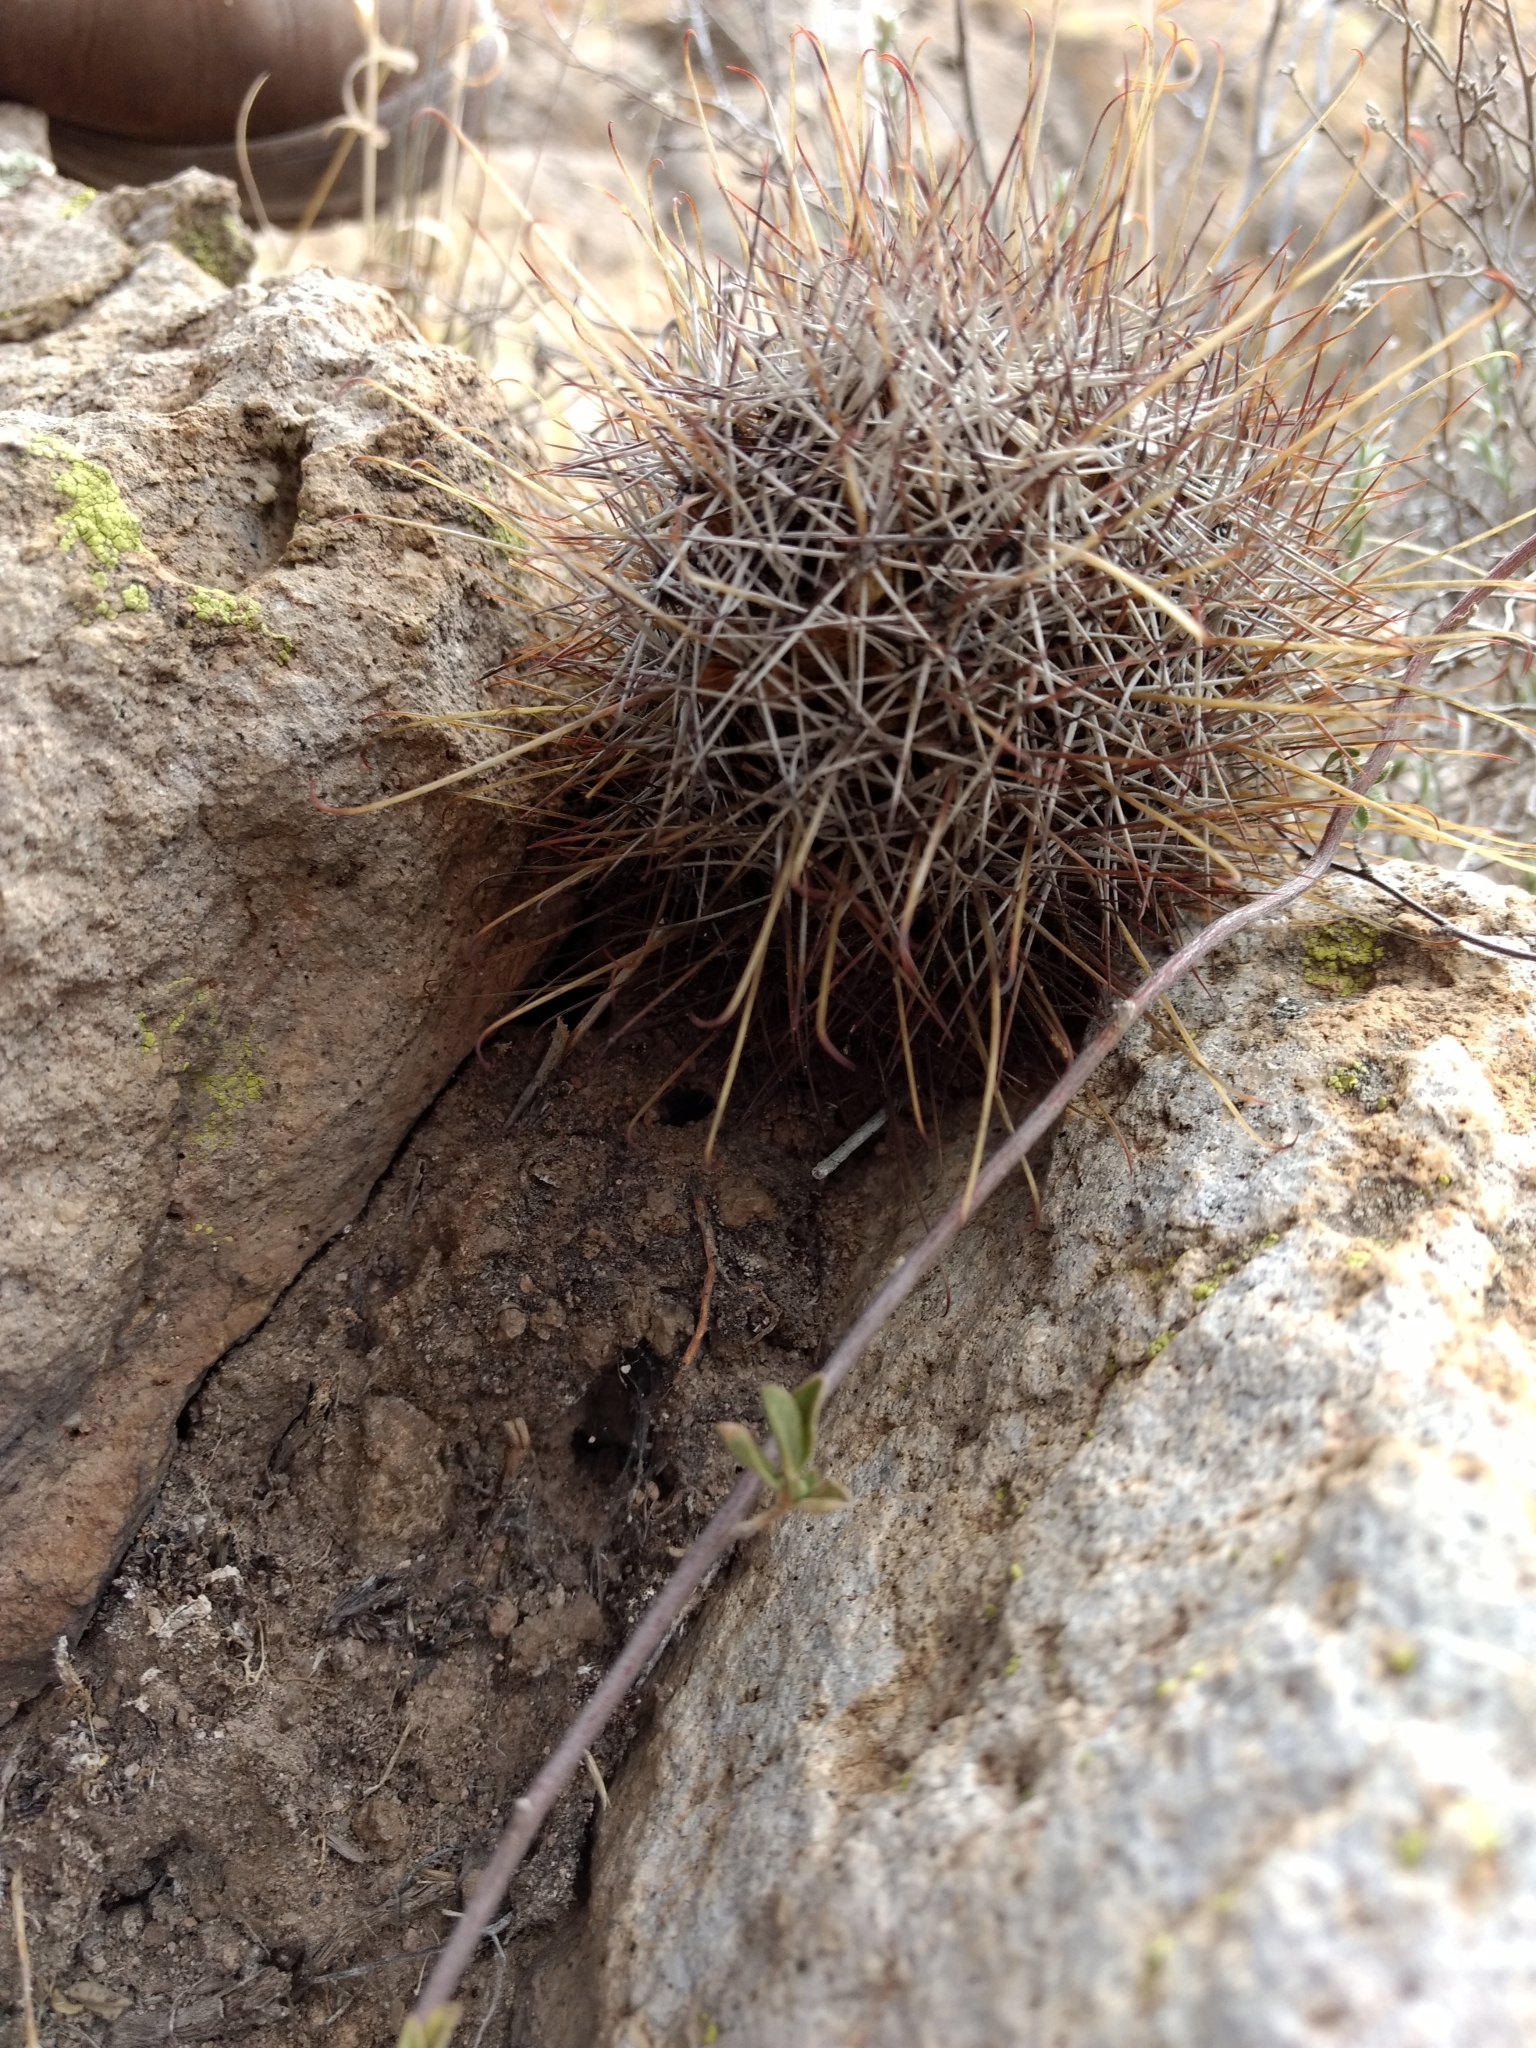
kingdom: Plantae
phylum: Tracheophyta
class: Magnoliopsida
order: Caryophyllales
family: Cactaceae
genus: Coryphantha
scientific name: Coryphantha clavata
